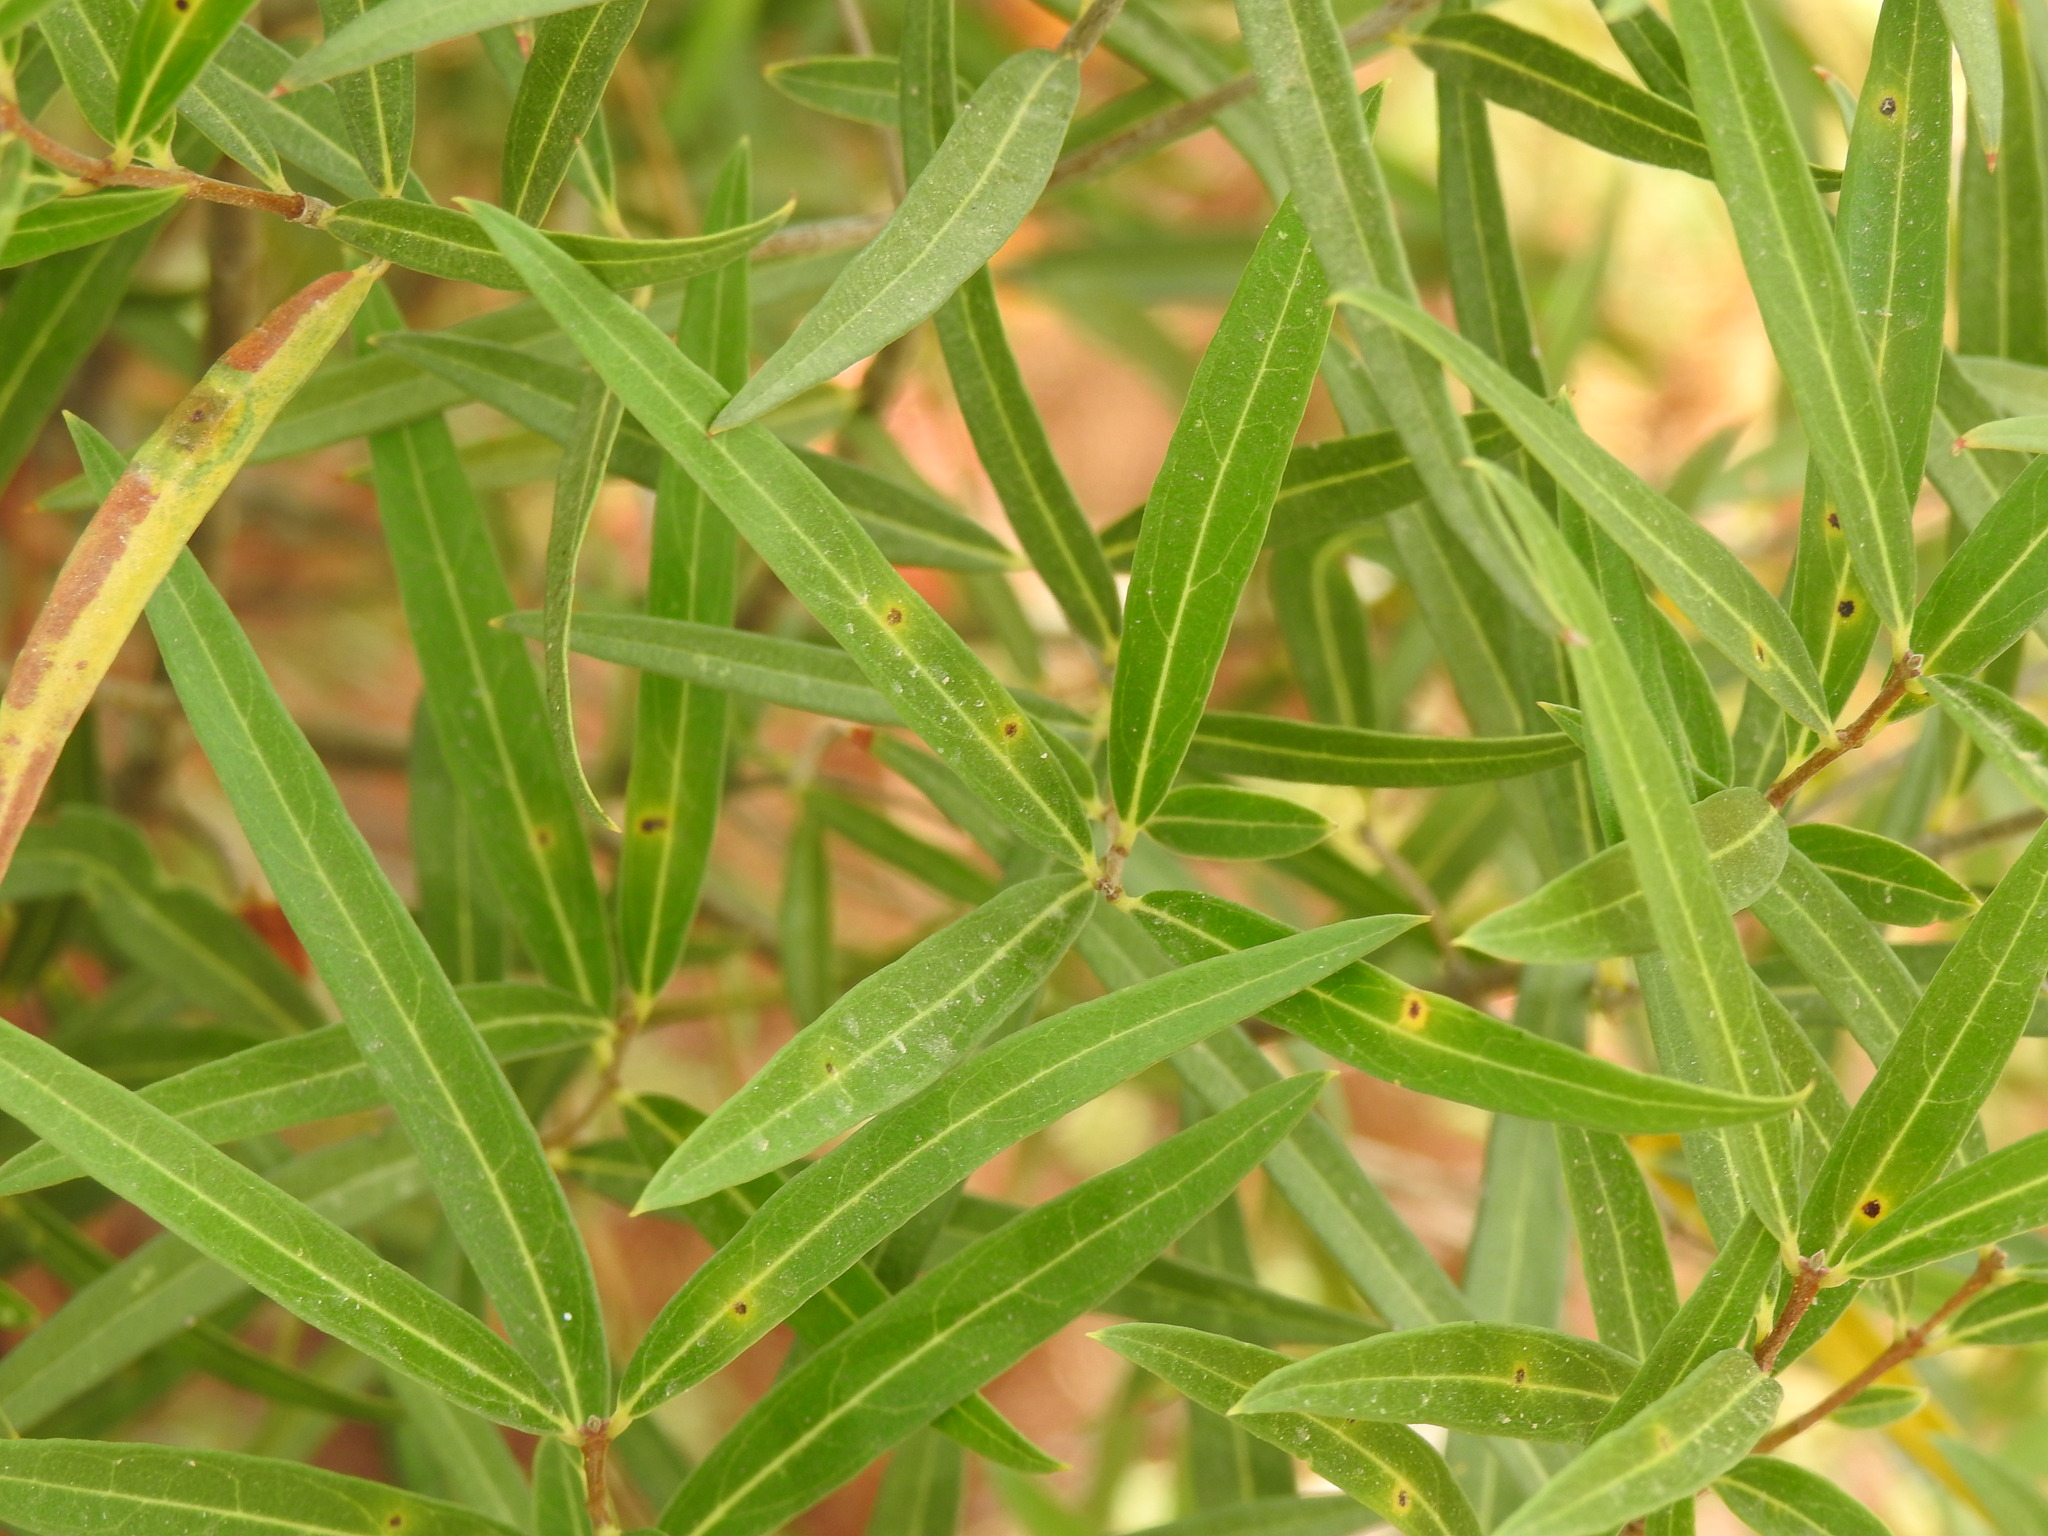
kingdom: Plantae
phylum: Tracheophyta
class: Magnoliopsida
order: Lamiales
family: Oleaceae
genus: Phillyrea
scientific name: Phillyrea angustifolia
